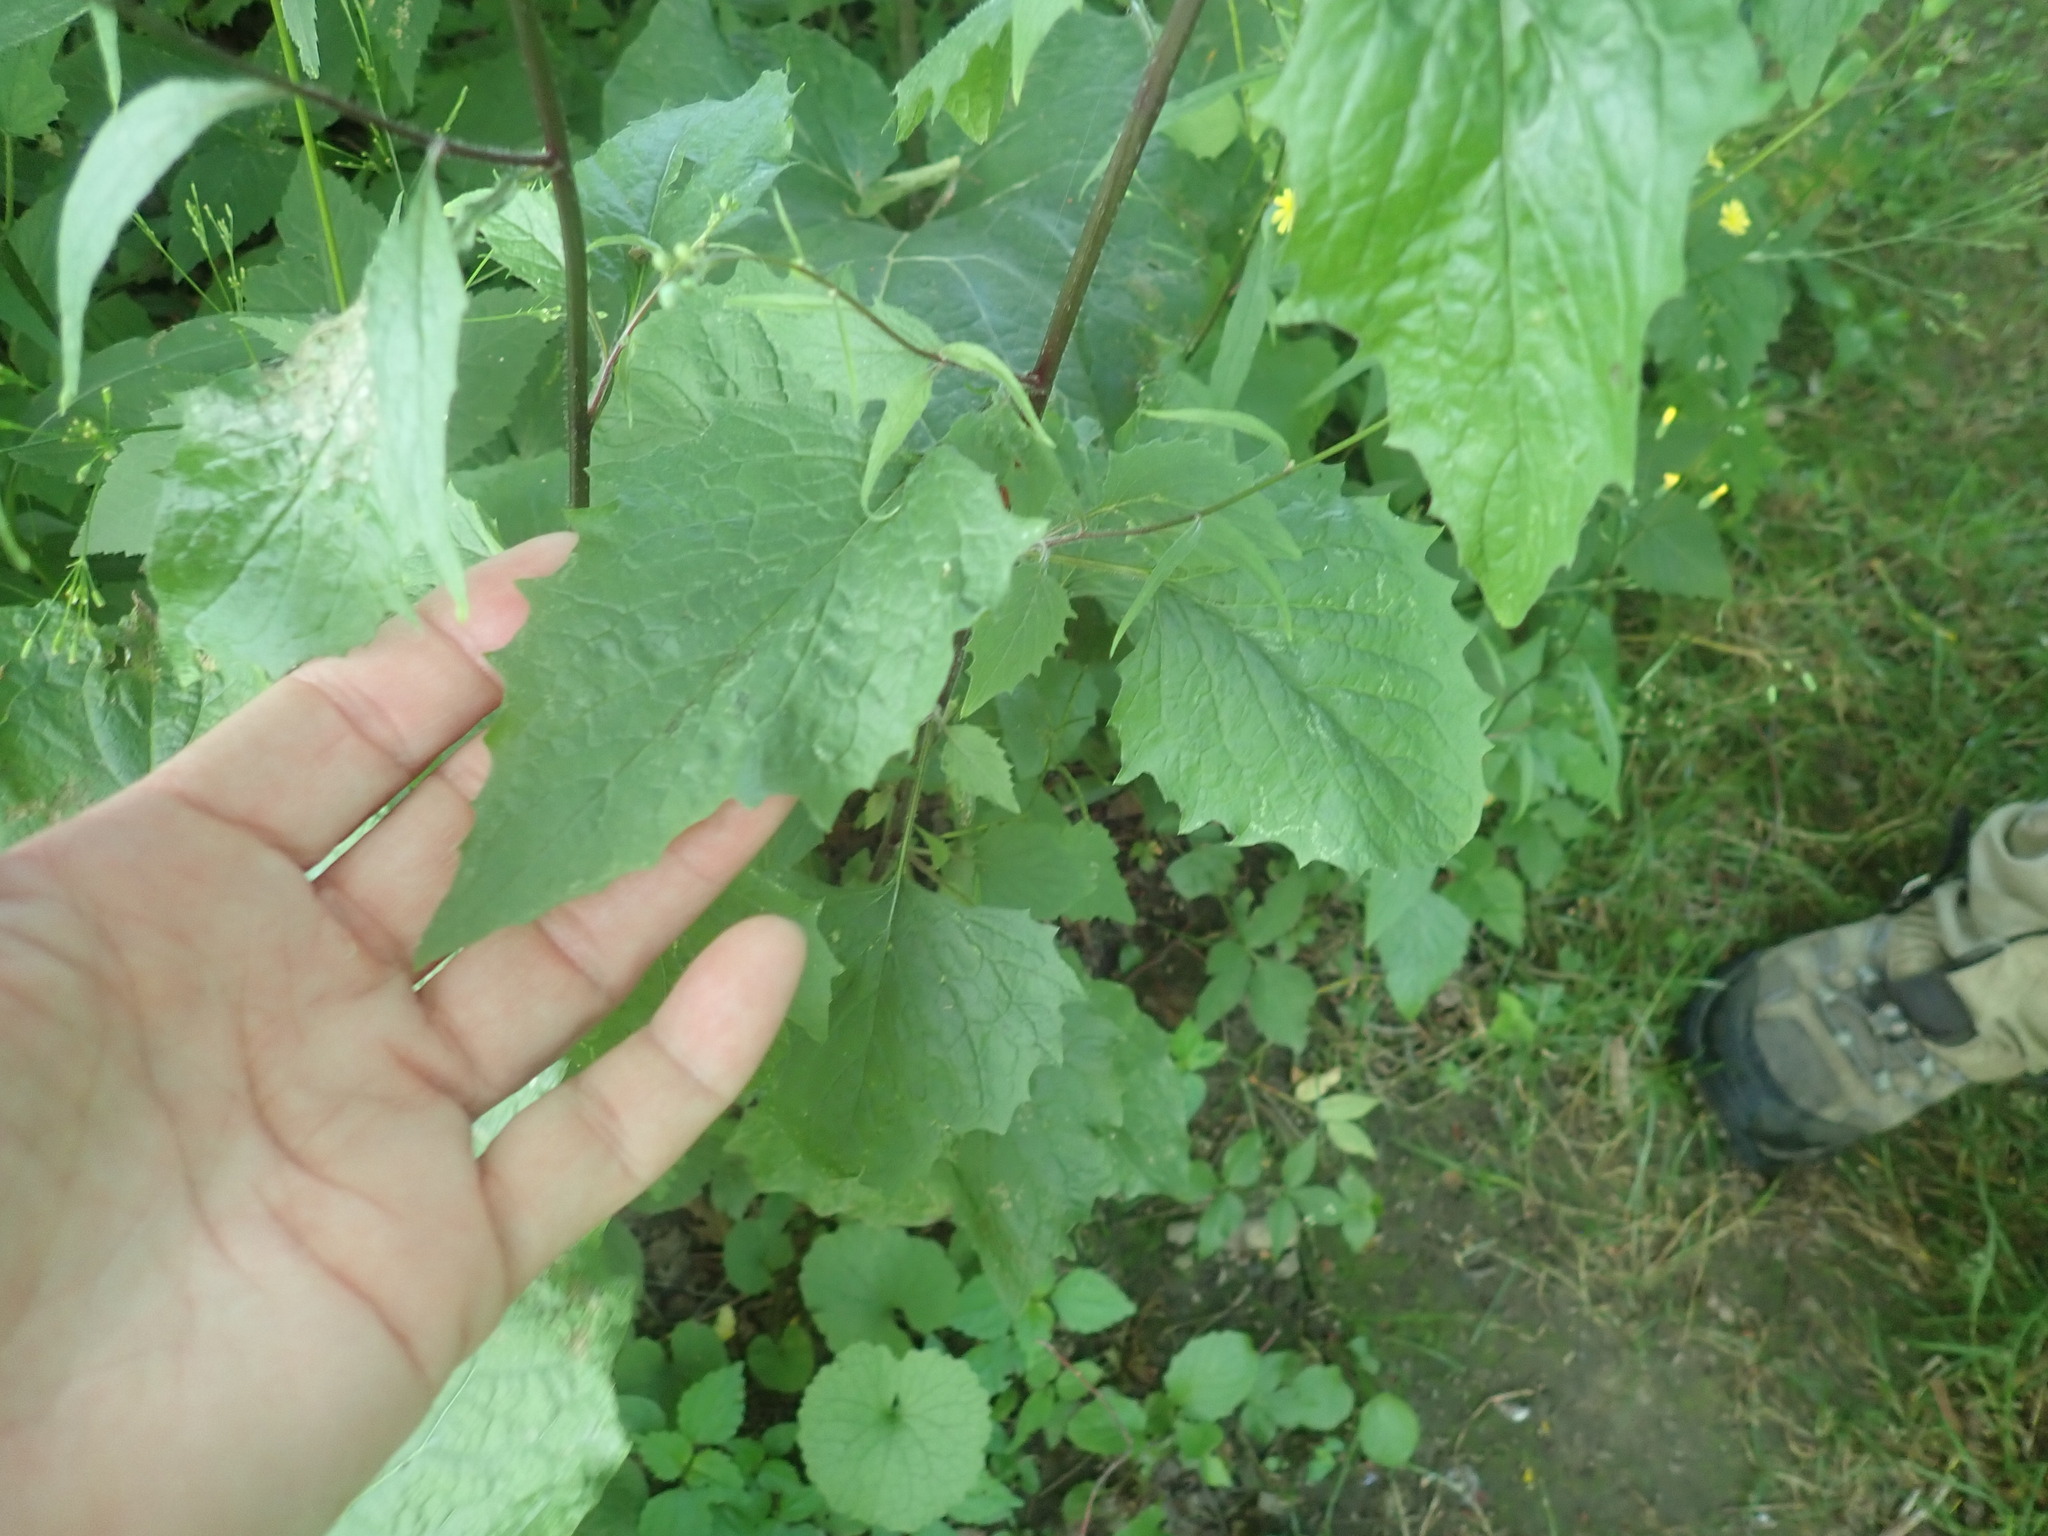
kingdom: Plantae
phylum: Tracheophyta
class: Magnoliopsida
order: Asterales
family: Asteraceae
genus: Lapsana
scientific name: Lapsana communis
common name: Nipplewort
